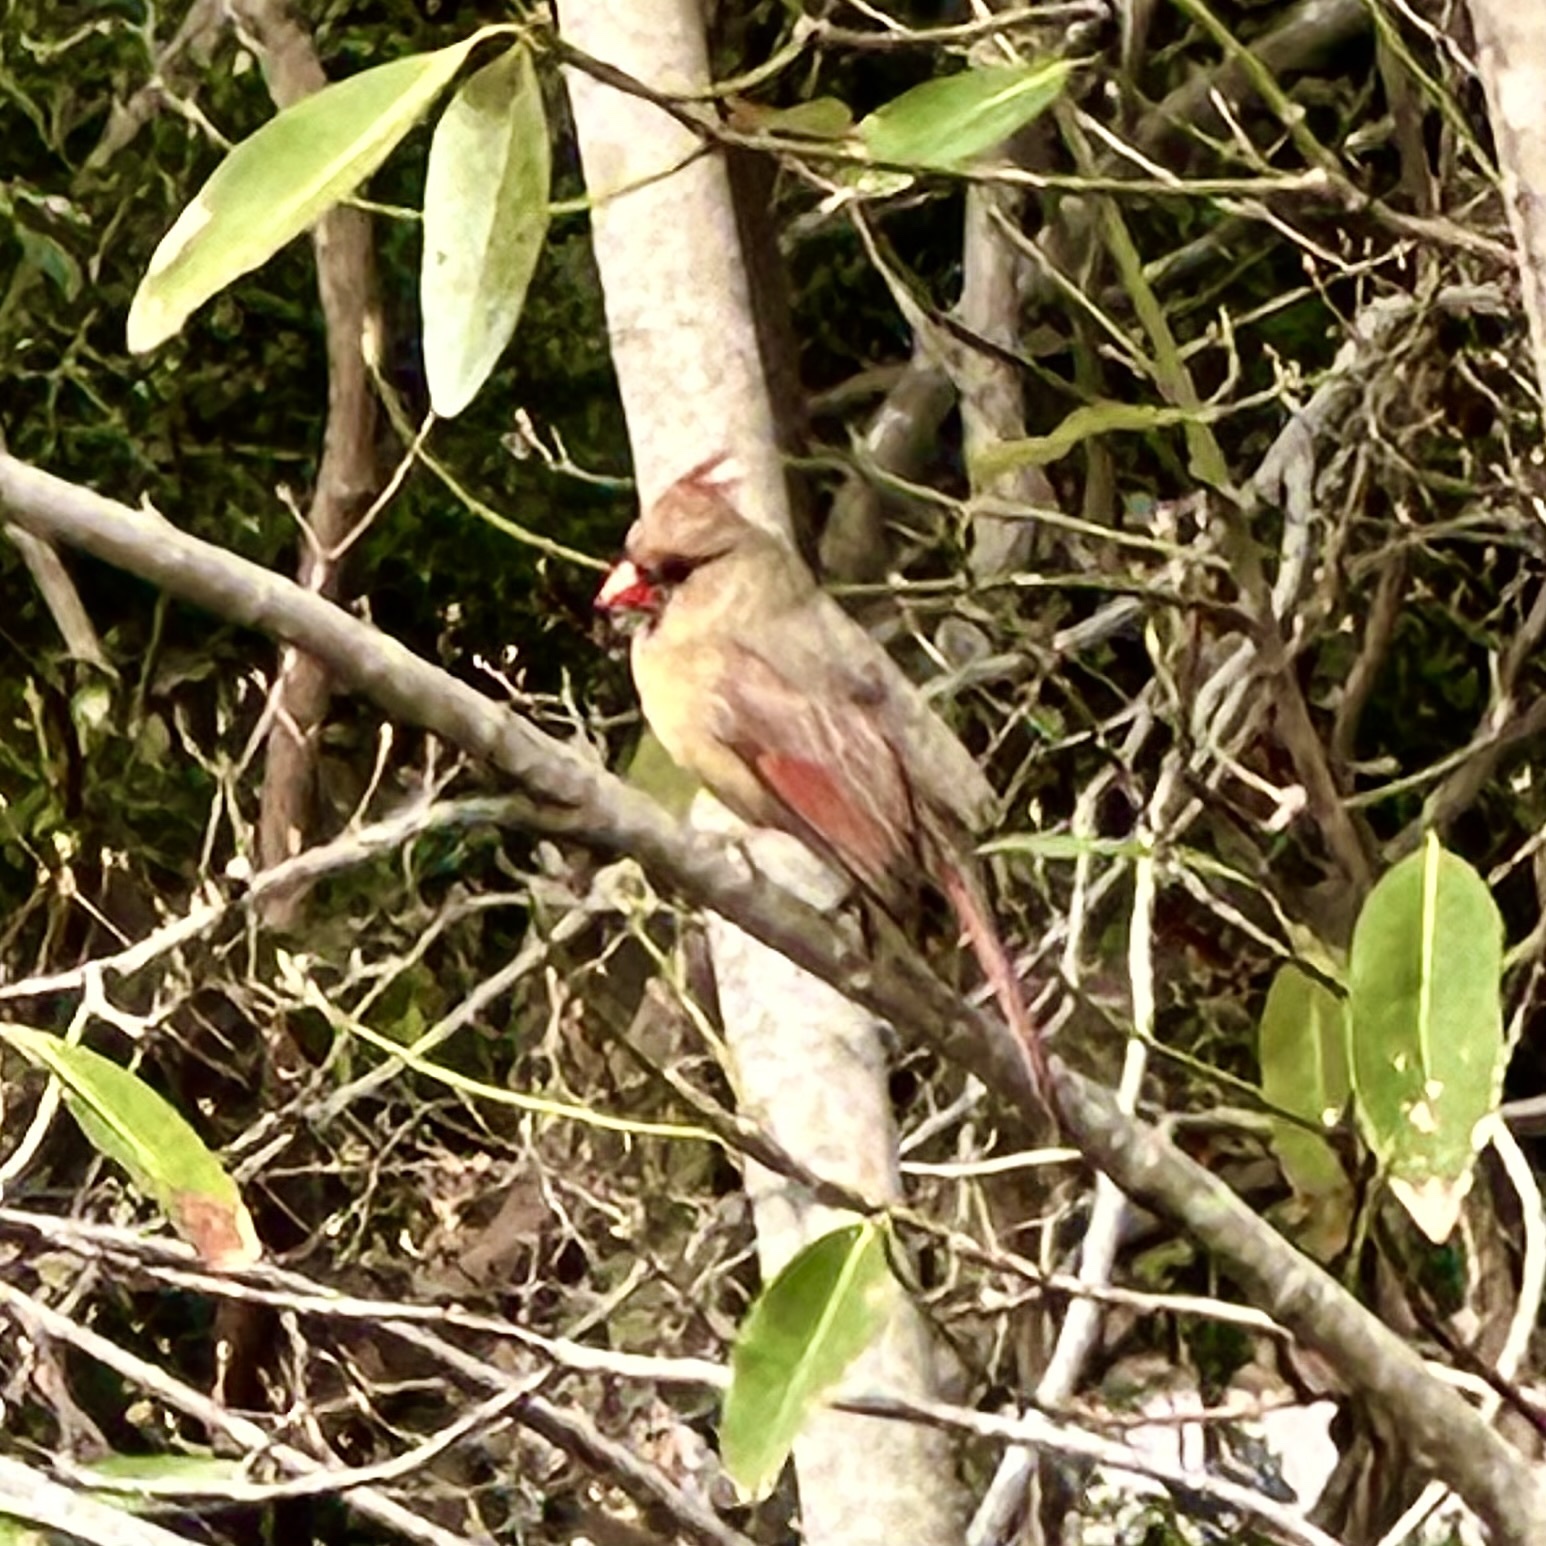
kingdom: Animalia
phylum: Chordata
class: Aves
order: Passeriformes
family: Cardinalidae
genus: Cardinalis
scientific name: Cardinalis cardinalis
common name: Northern cardinal
